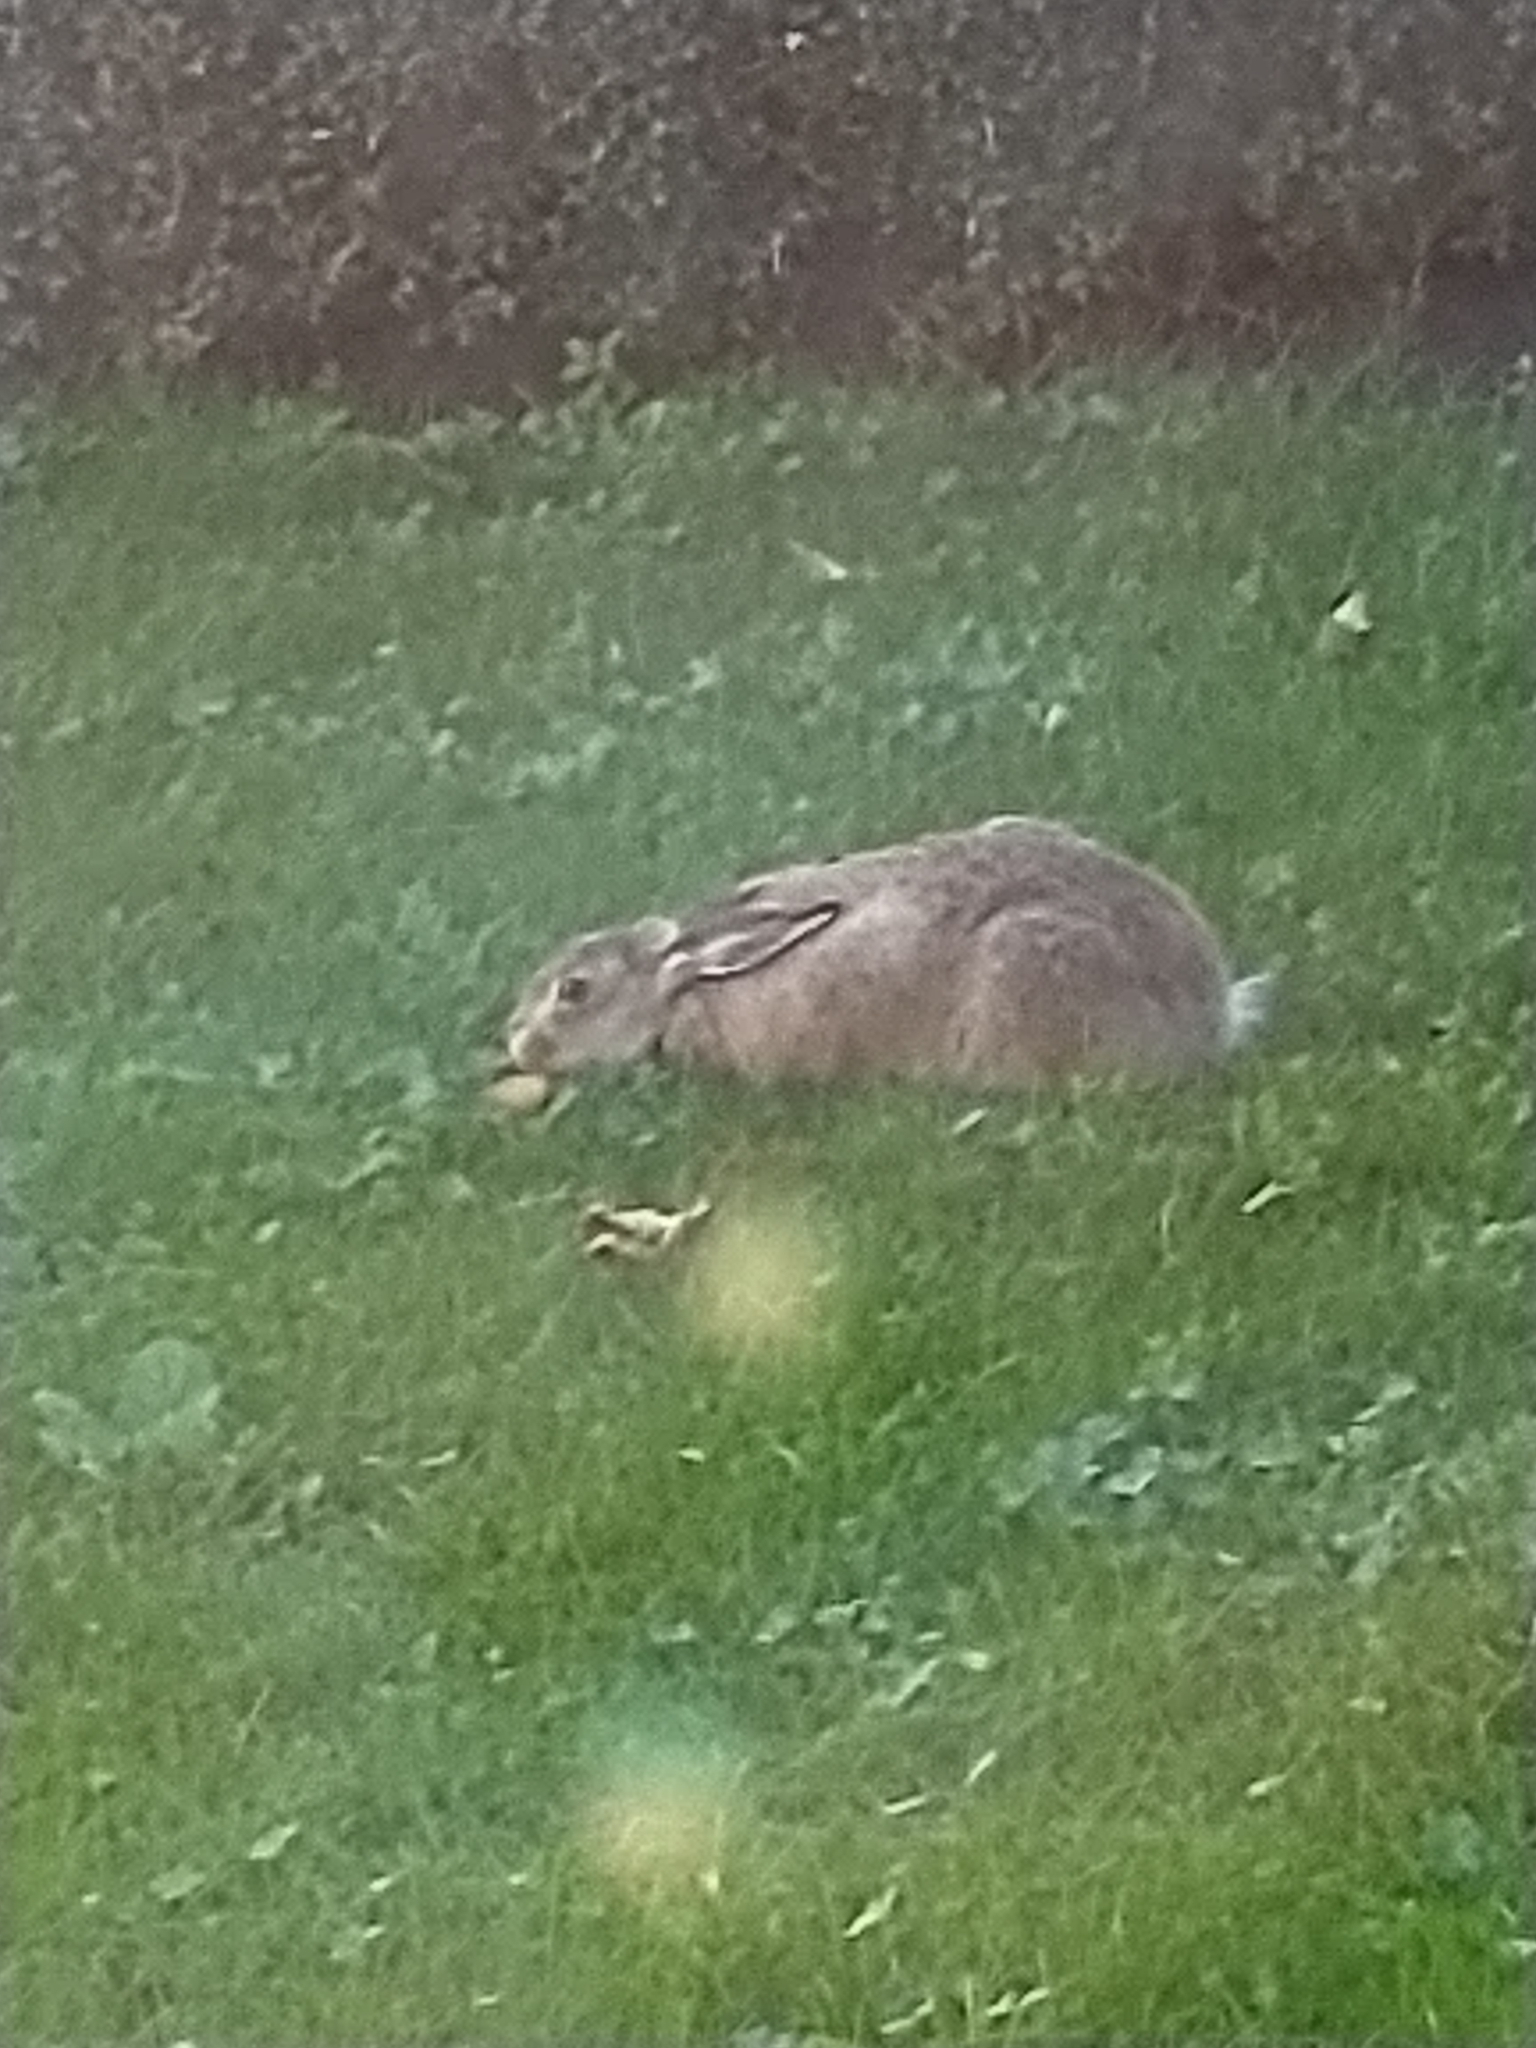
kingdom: Animalia
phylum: Chordata
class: Mammalia
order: Lagomorpha
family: Leporidae
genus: Lepus
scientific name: Lepus europaeus
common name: European hare
